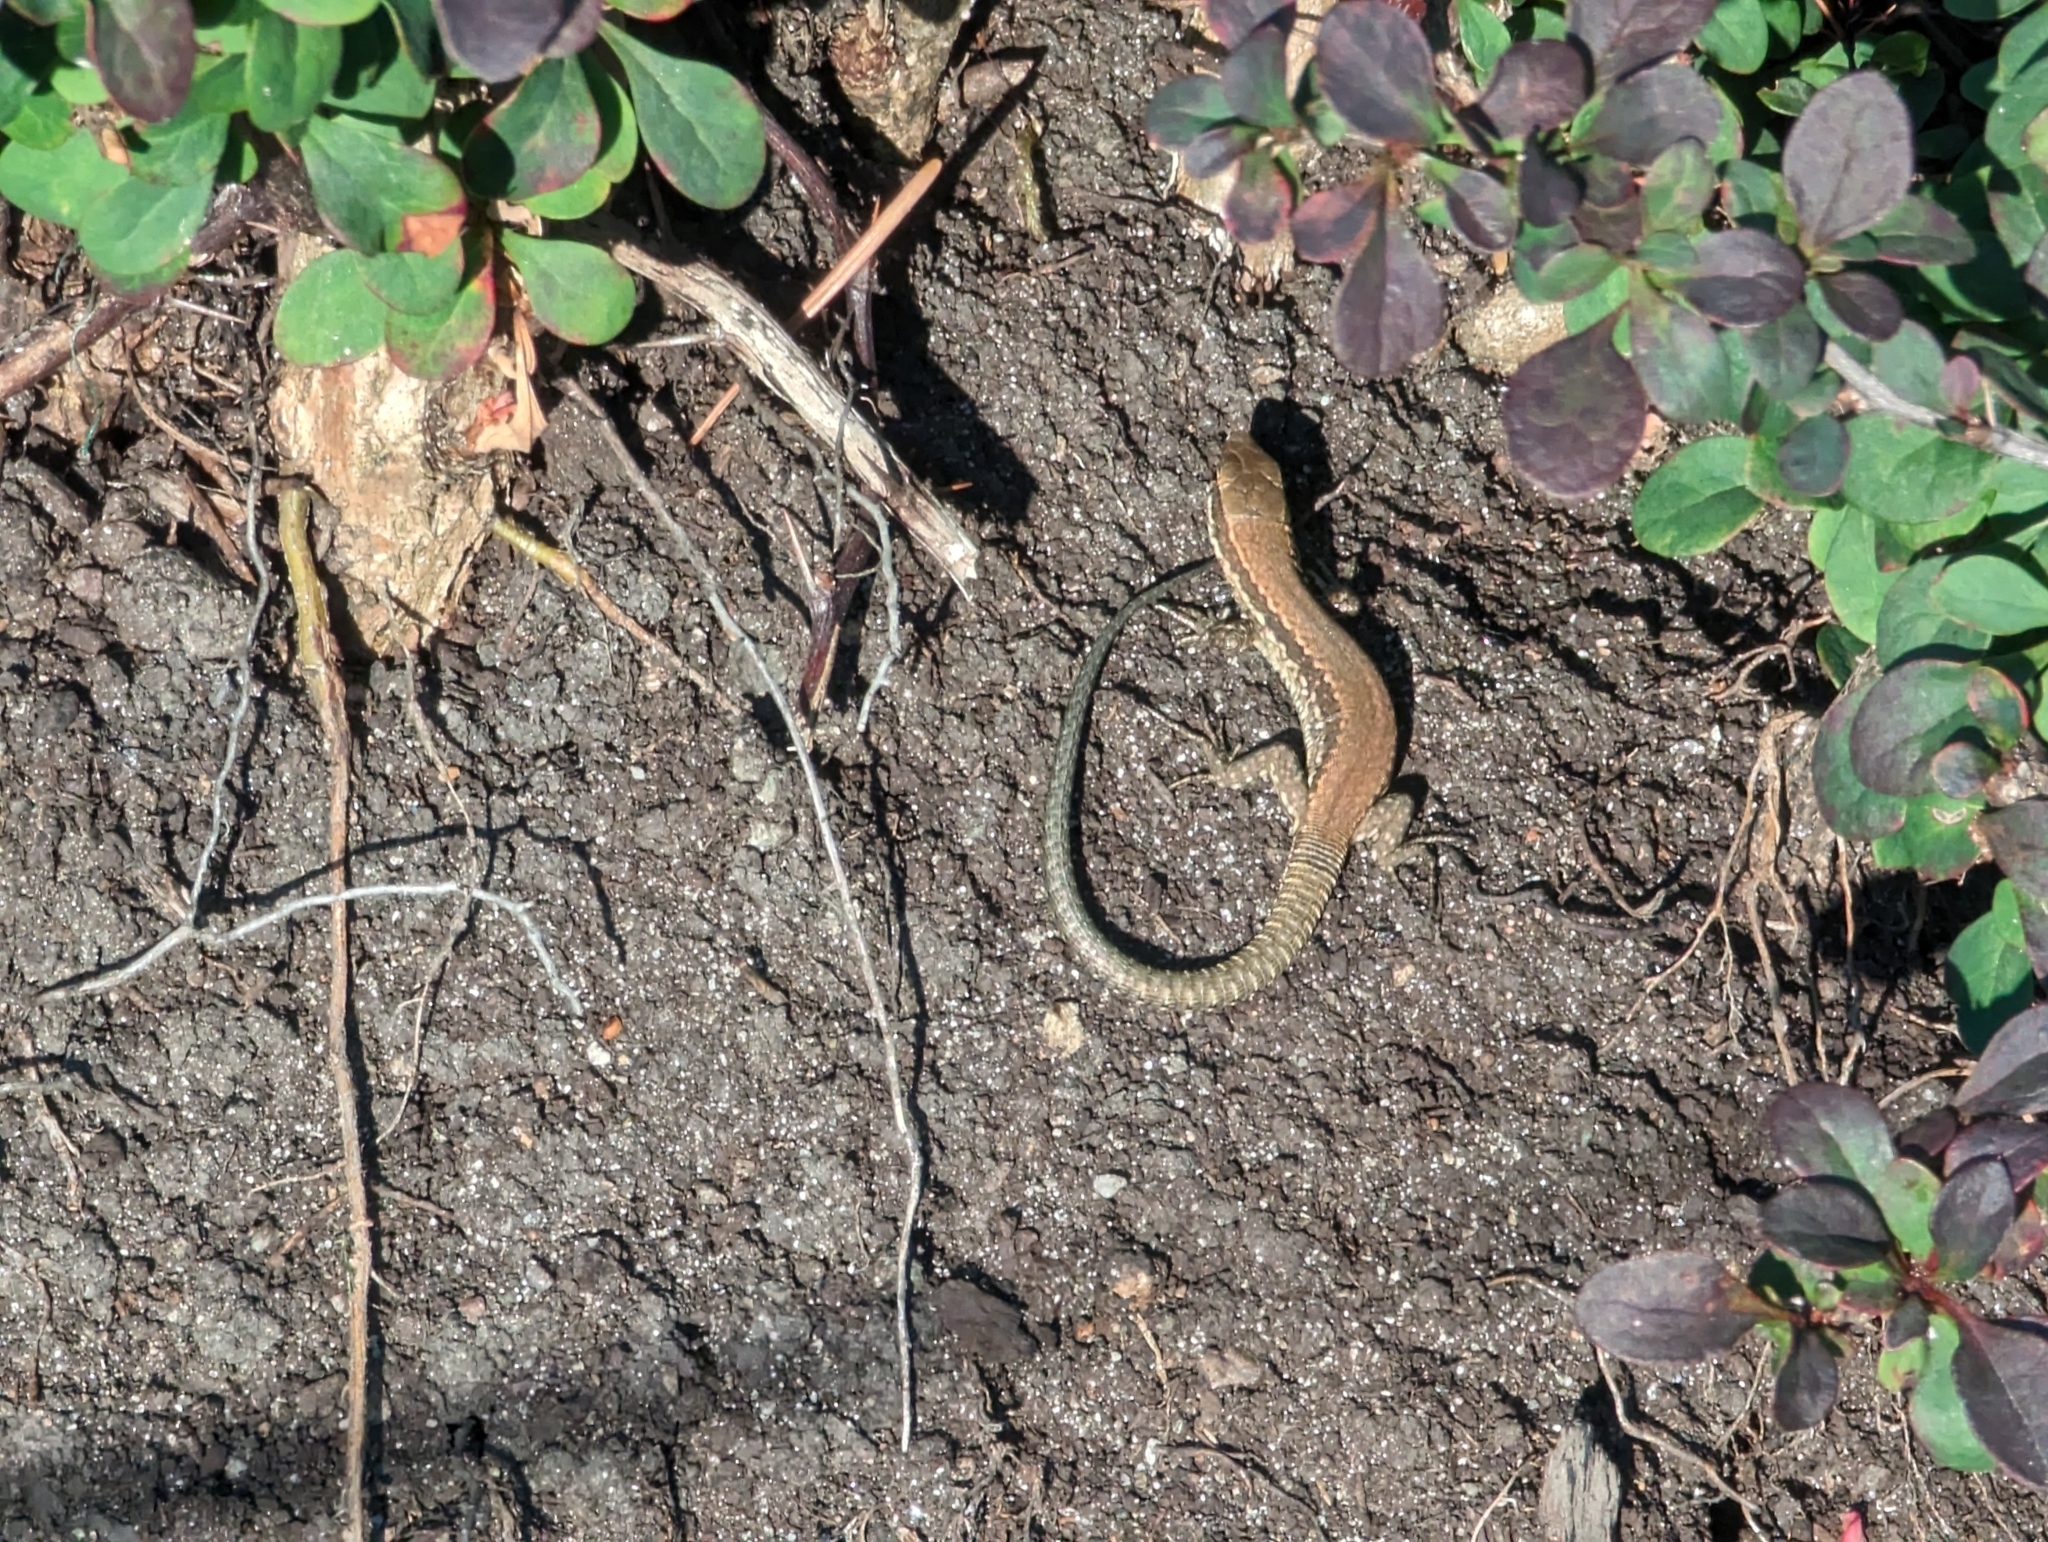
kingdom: Animalia
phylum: Chordata
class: Squamata
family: Lacertidae
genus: Podarcis
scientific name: Podarcis muralis
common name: Common wall lizard
